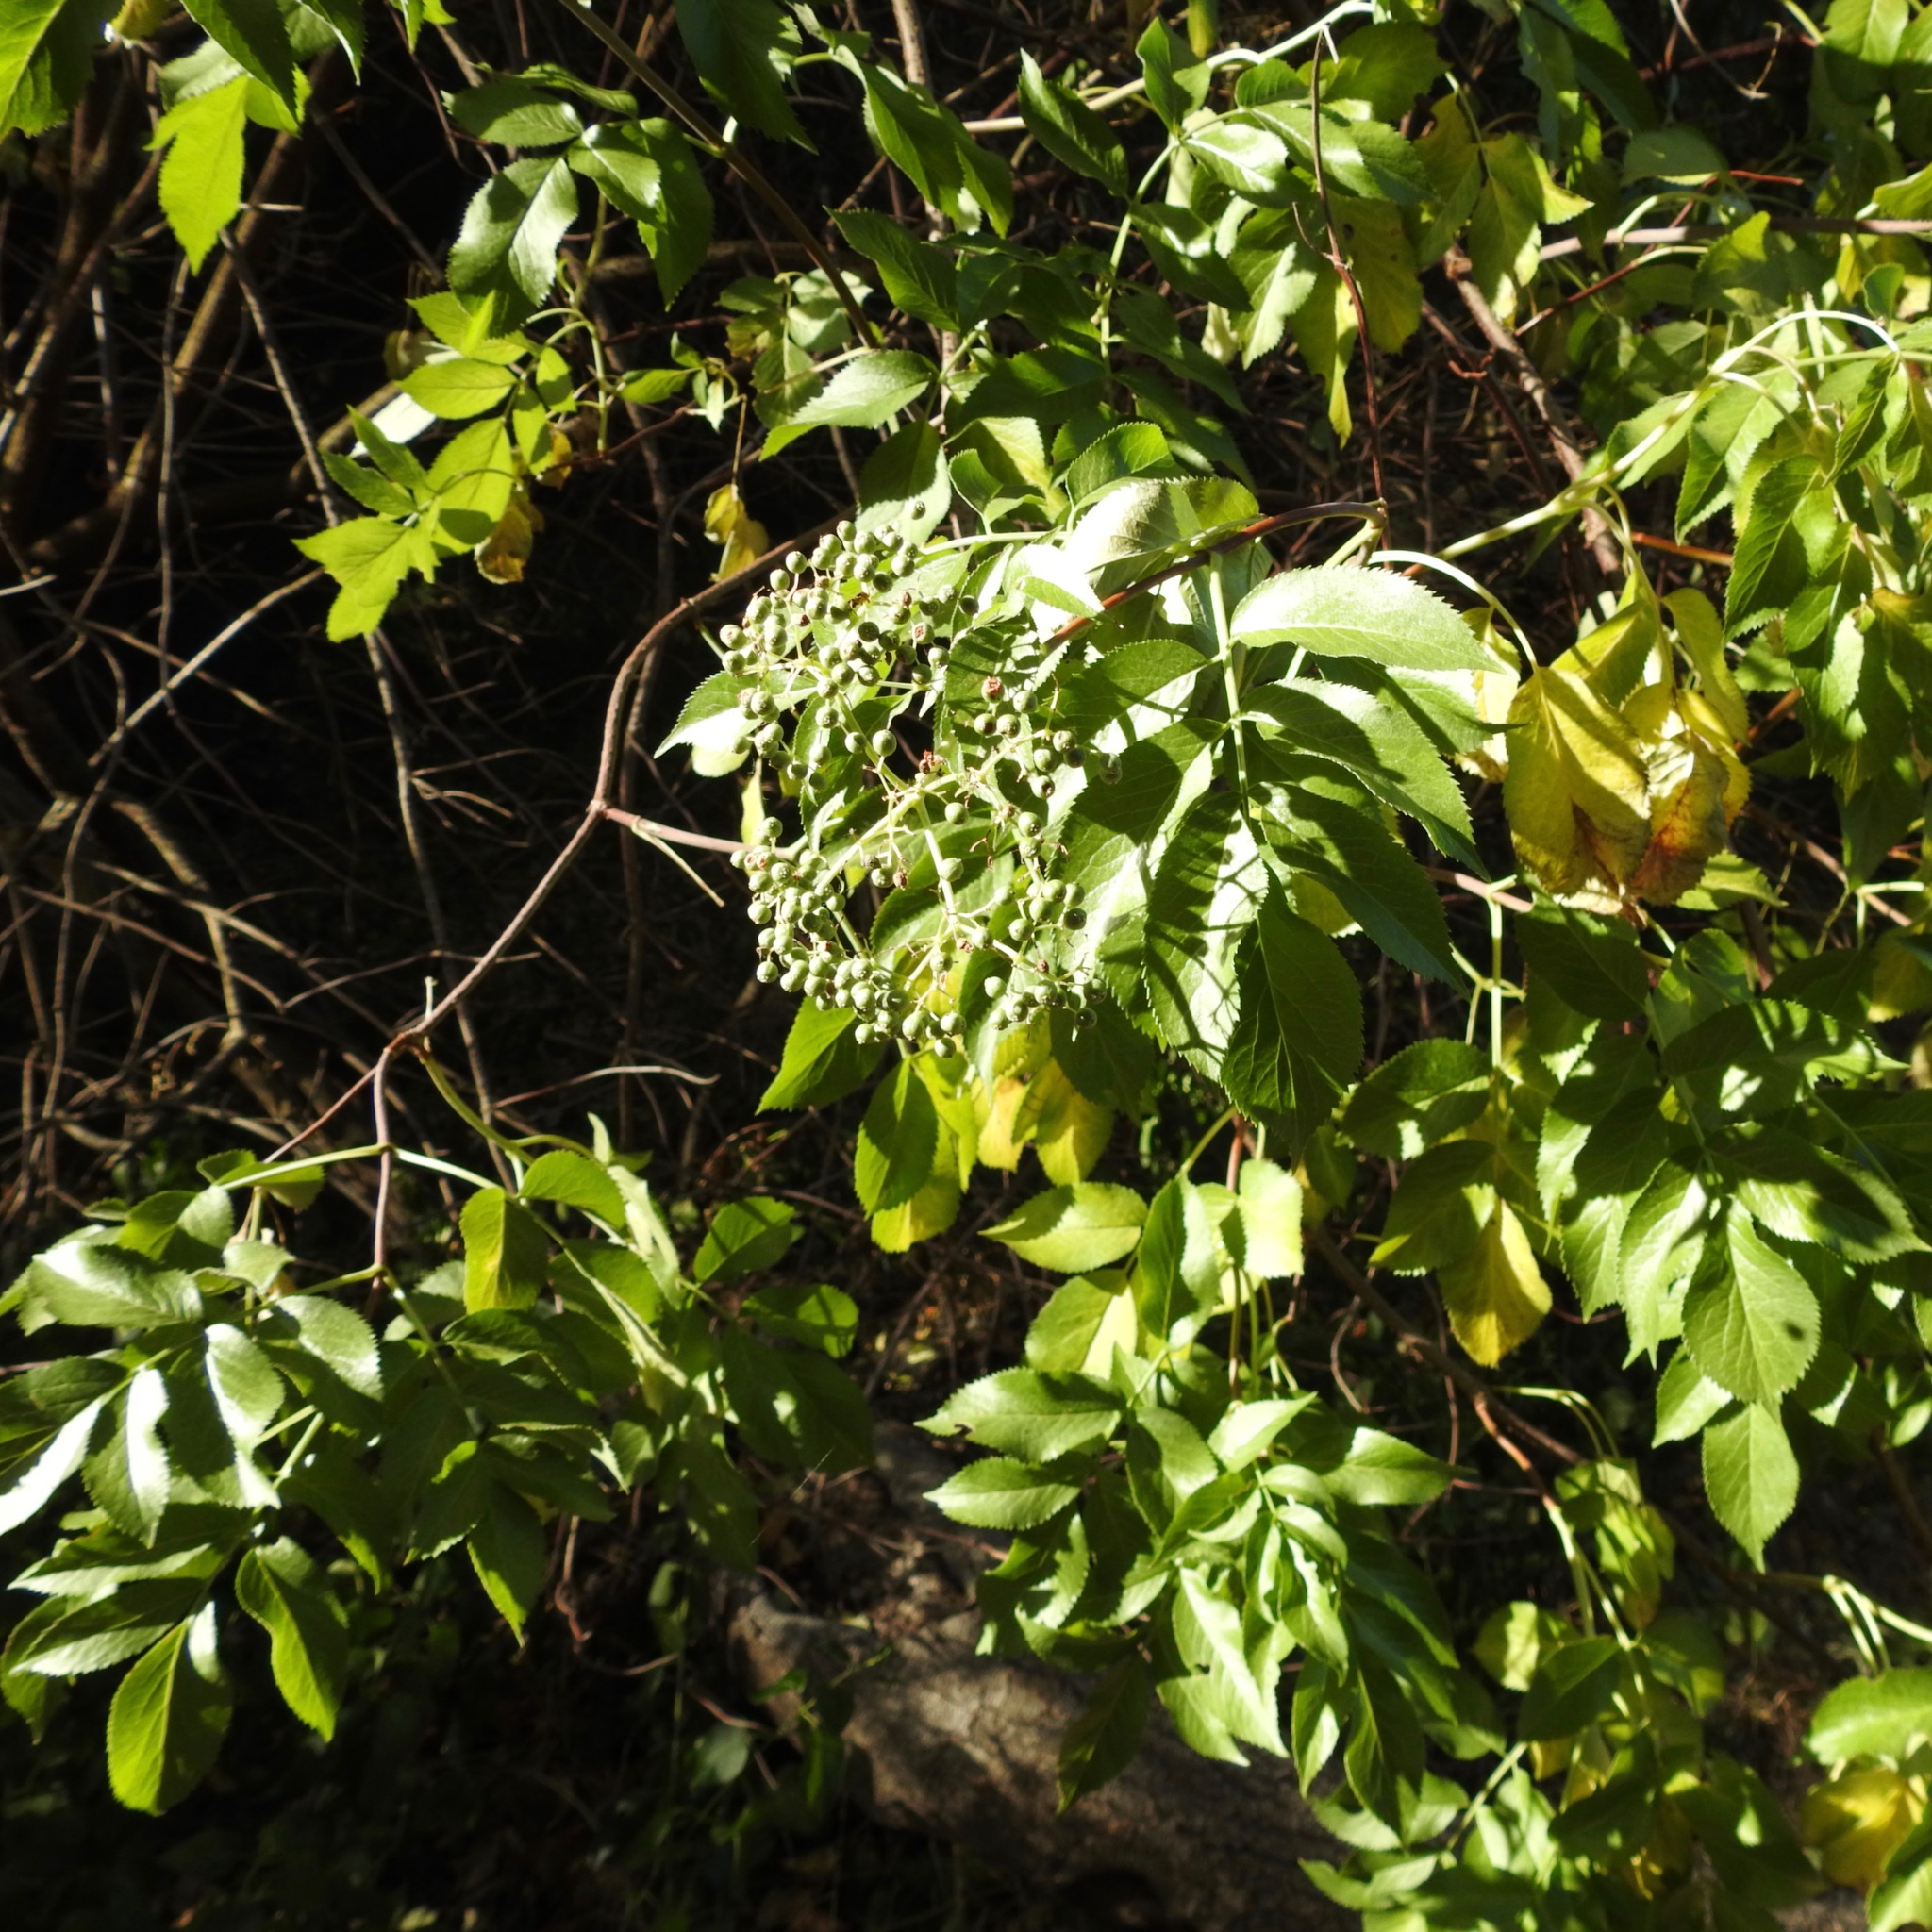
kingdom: Plantae
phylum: Tracheophyta
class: Magnoliopsida
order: Dipsacales
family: Viburnaceae
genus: Sambucus
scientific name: Sambucus cerulea
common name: Blue elder
